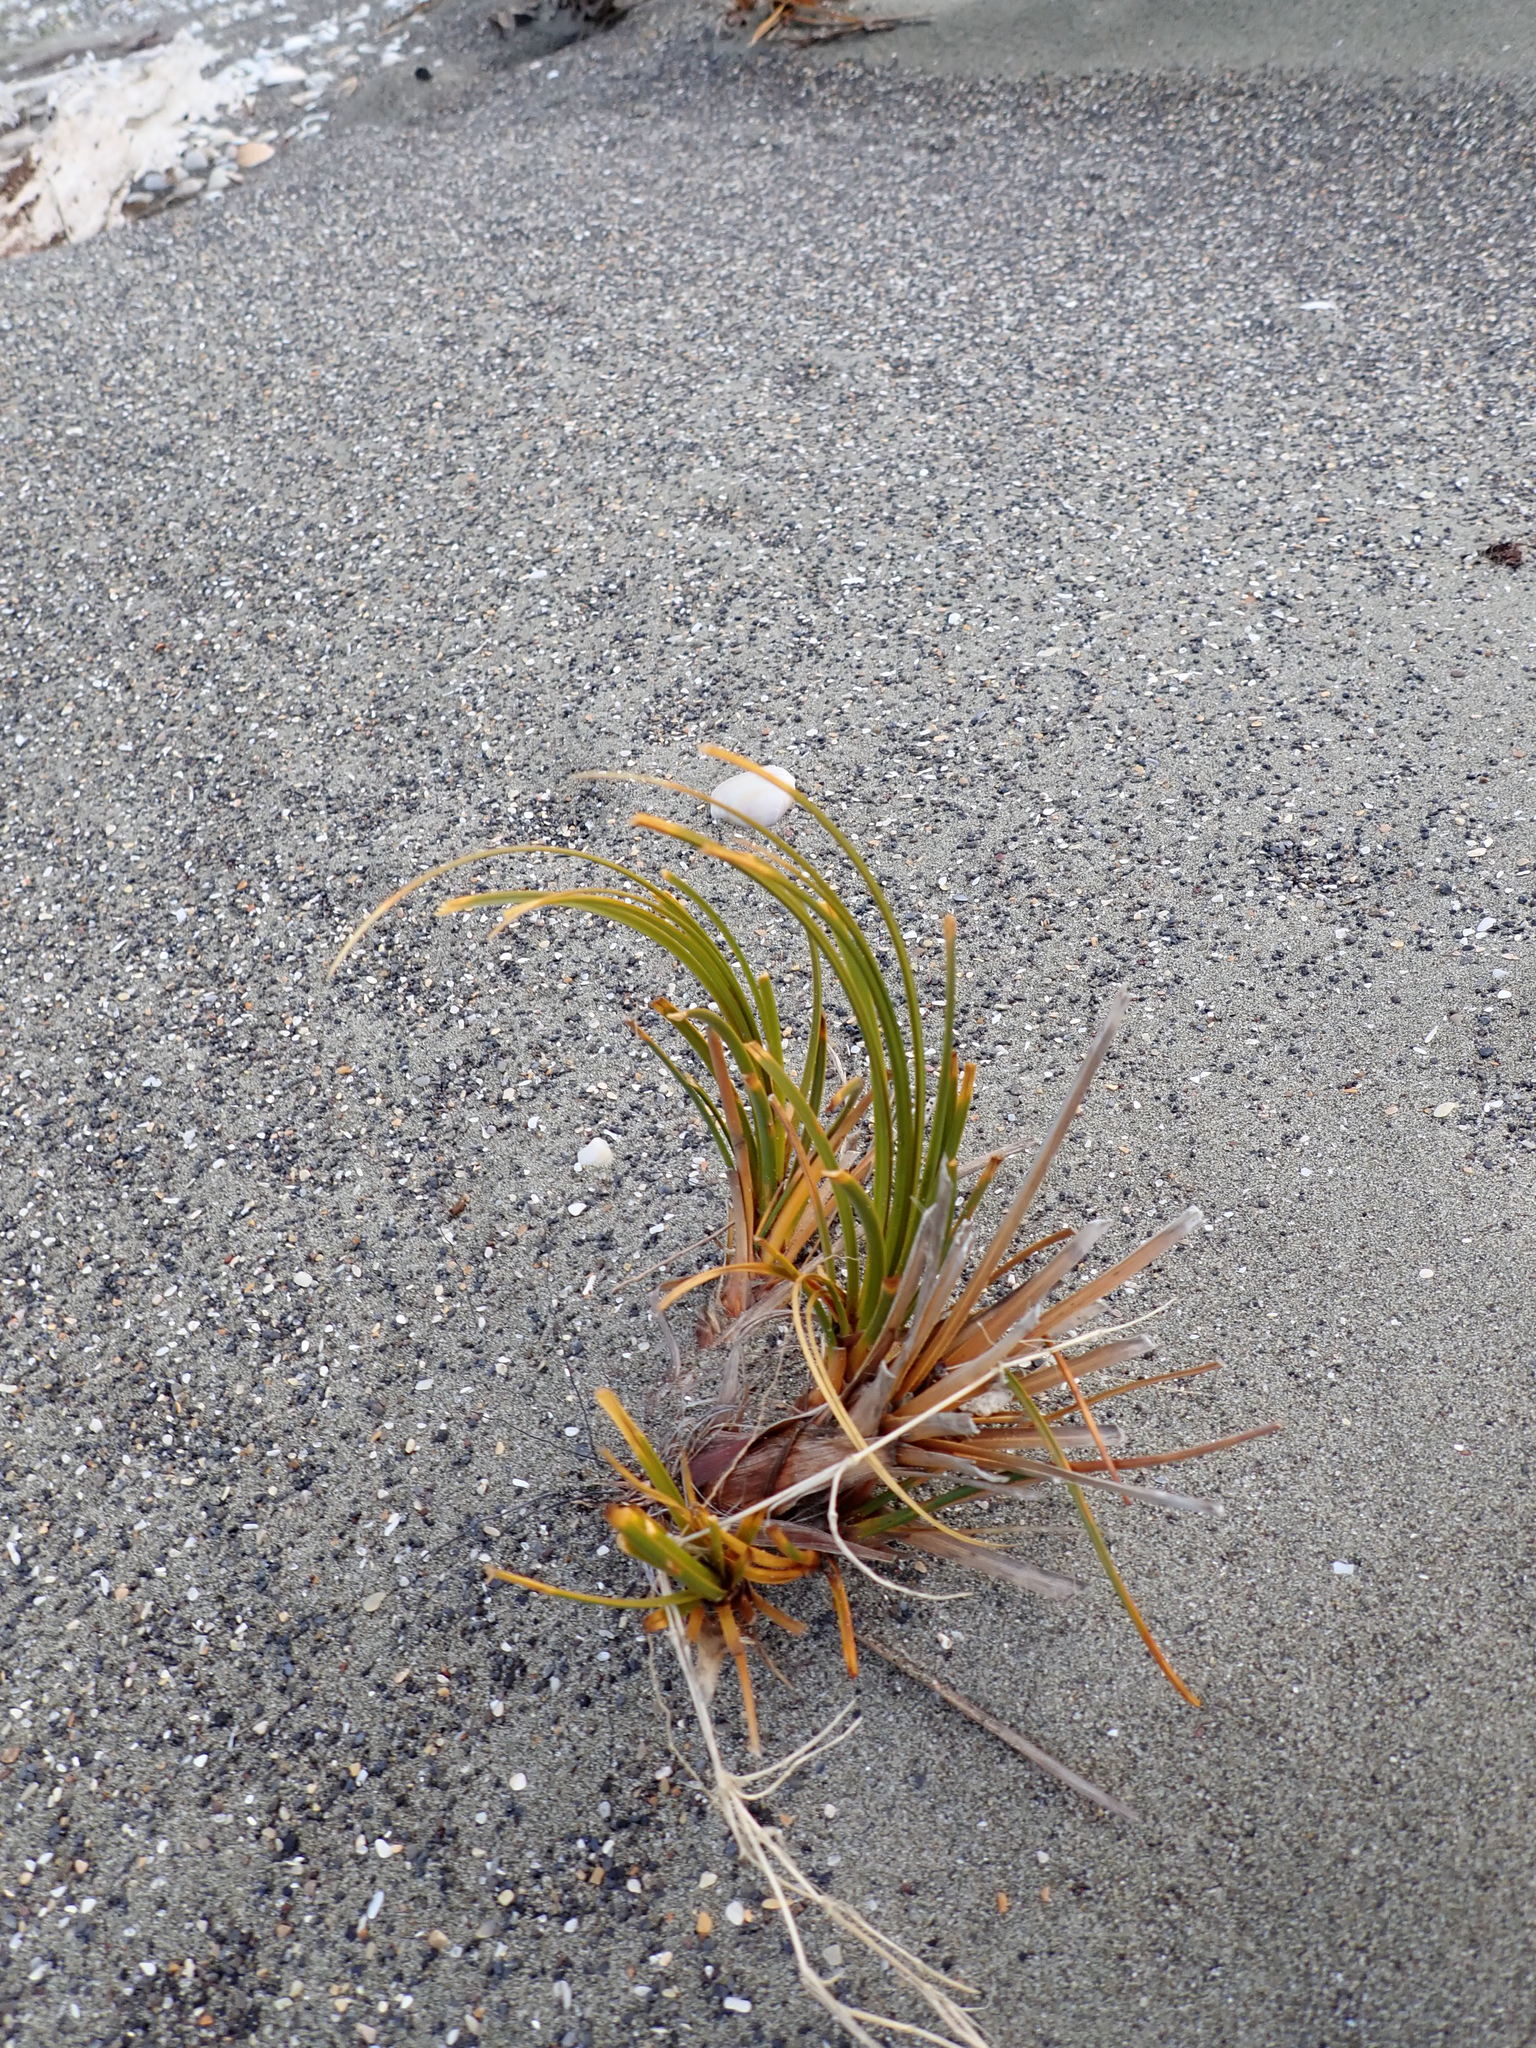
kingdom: Plantae
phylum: Tracheophyta
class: Liliopsida
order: Poales
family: Cyperaceae
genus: Ficinia
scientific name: Ficinia spiralis
